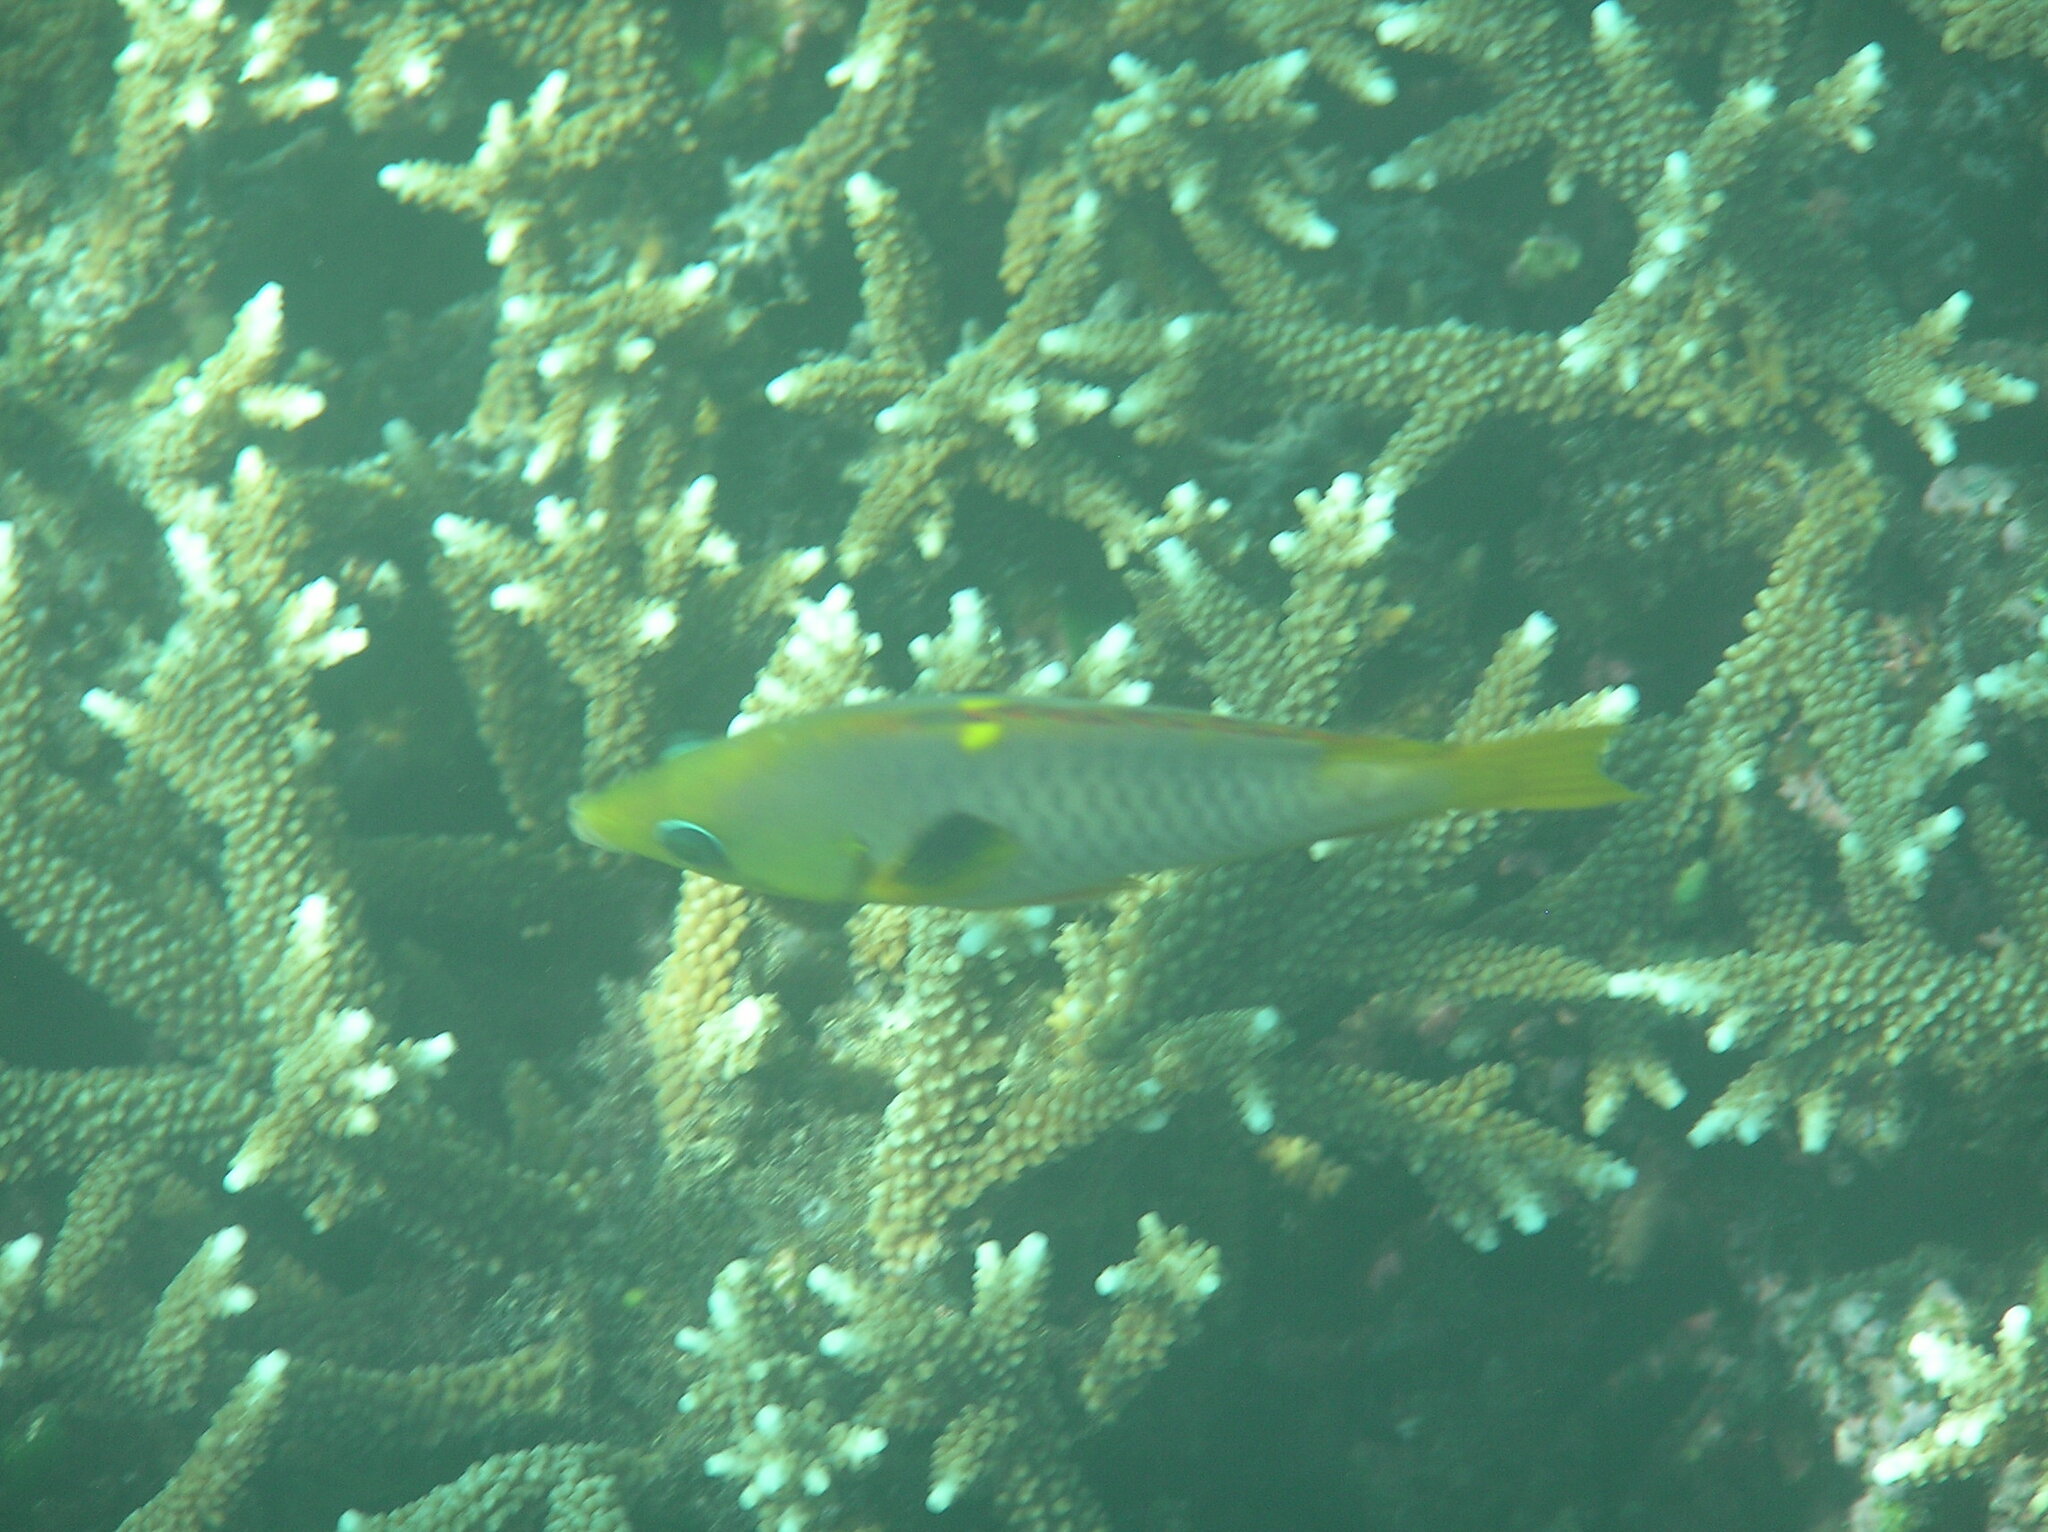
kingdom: Animalia
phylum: Chordata
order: Perciformes
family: Labridae
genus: Epibulus
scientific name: Epibulus brevis
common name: Dwarf slingjaw wrasse
